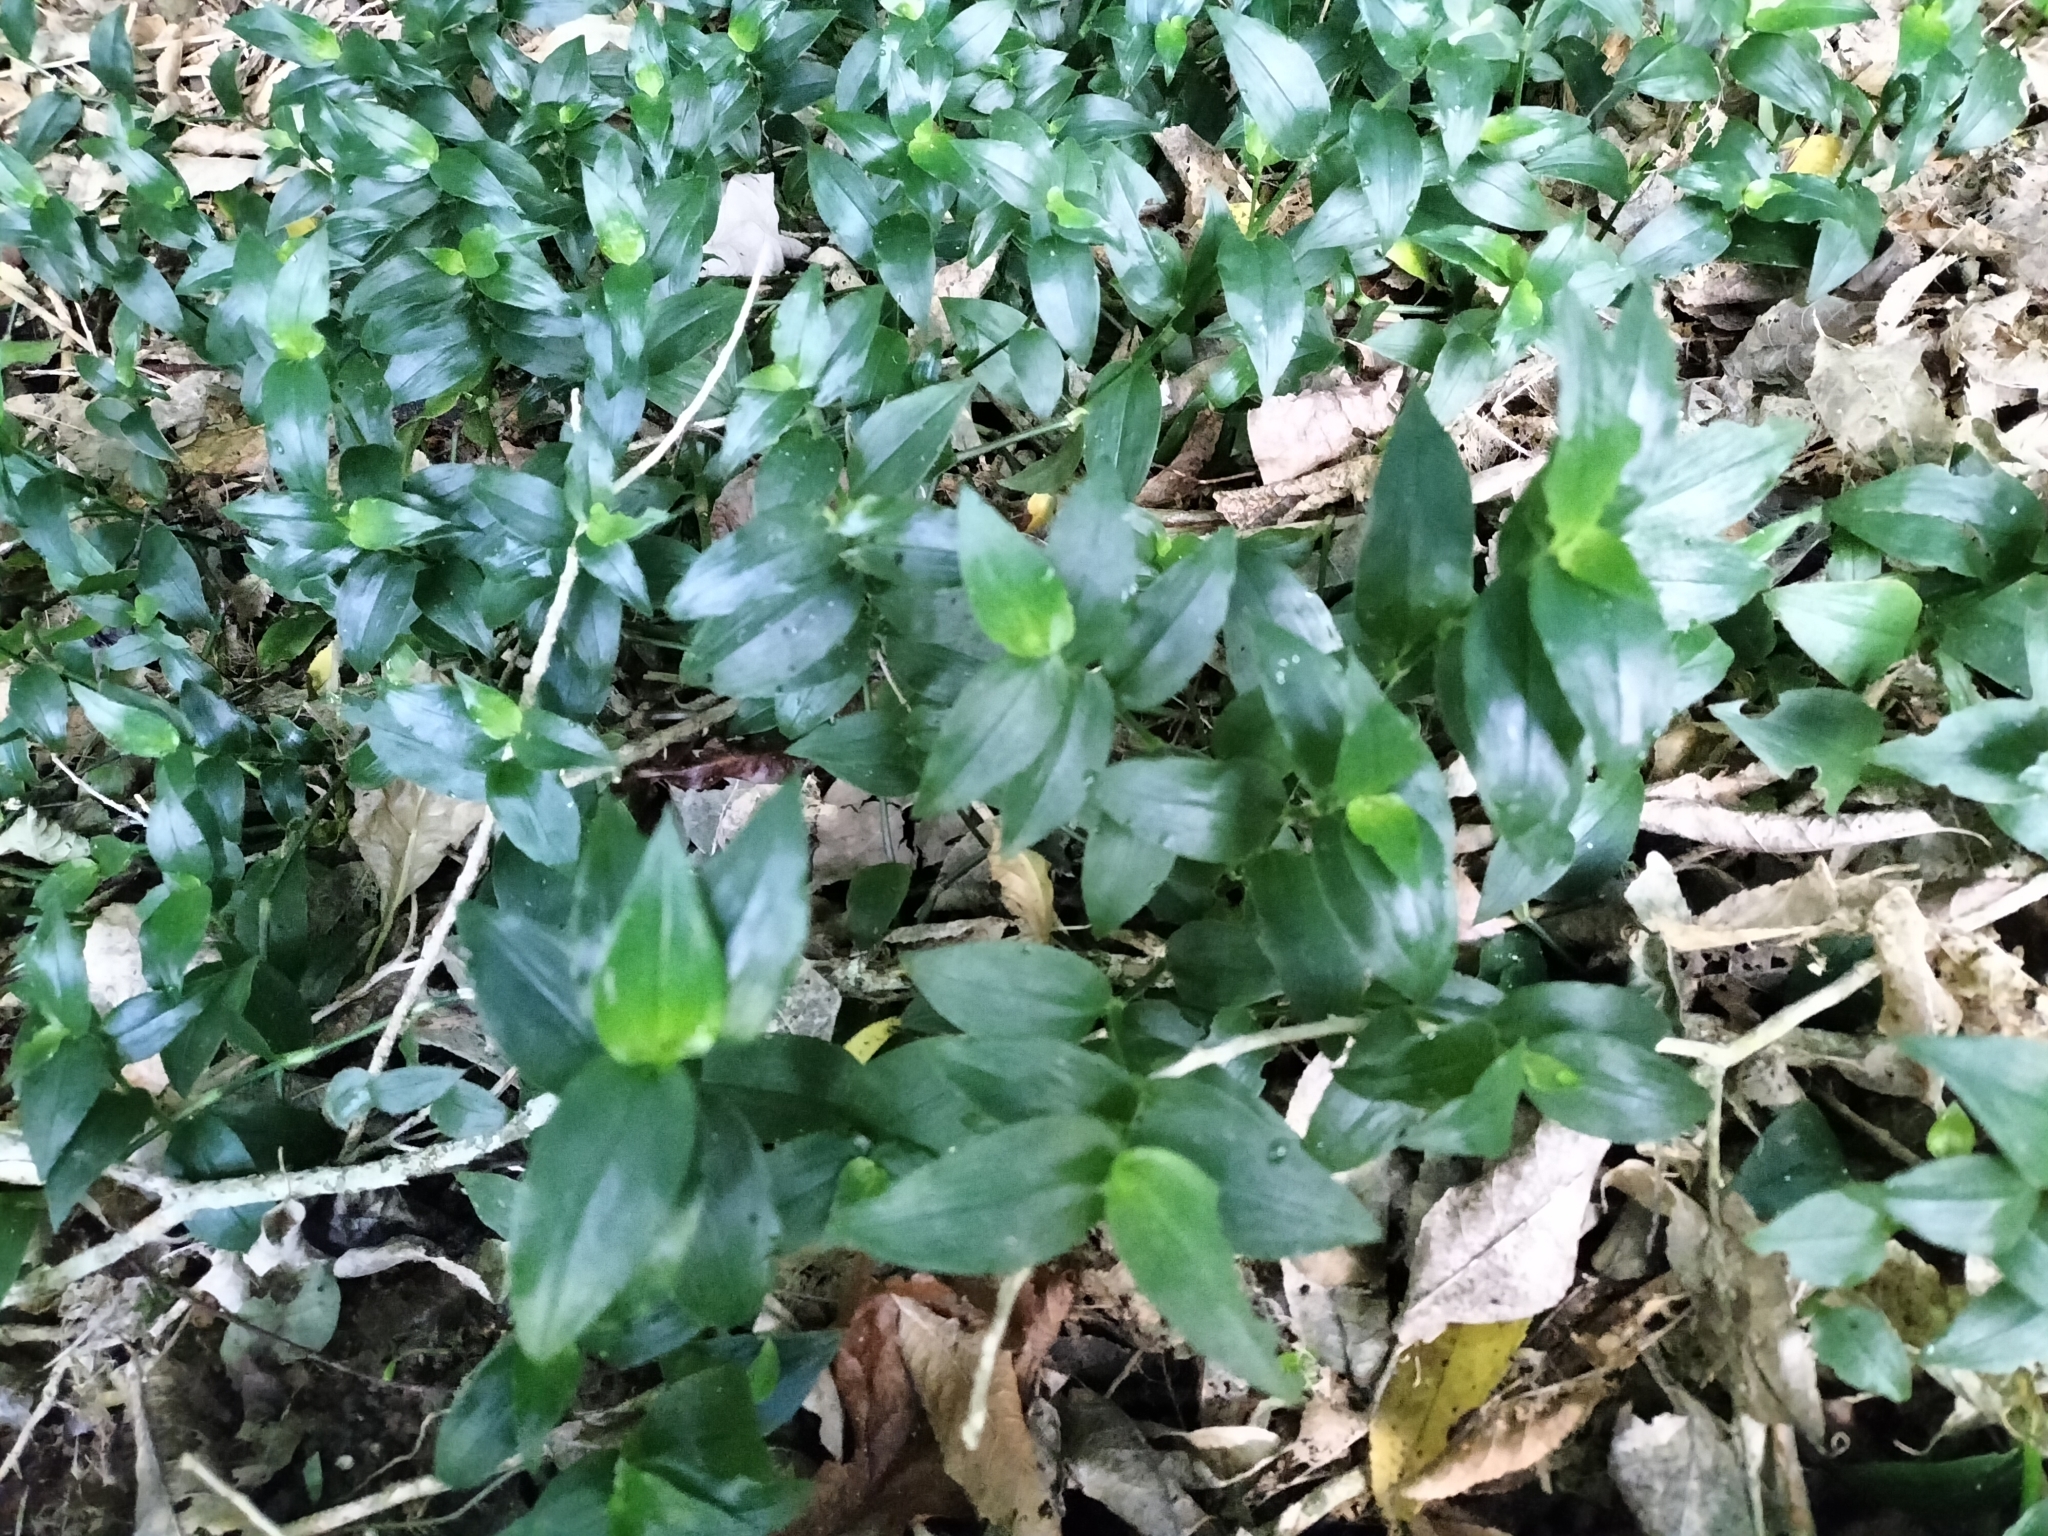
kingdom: Plantae
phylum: Tracheophyta
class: Liliopsida
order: Commelinales
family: Commelinaceae
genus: Tradescantia
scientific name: Tradescantia fluminensis
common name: Wandering-jew
